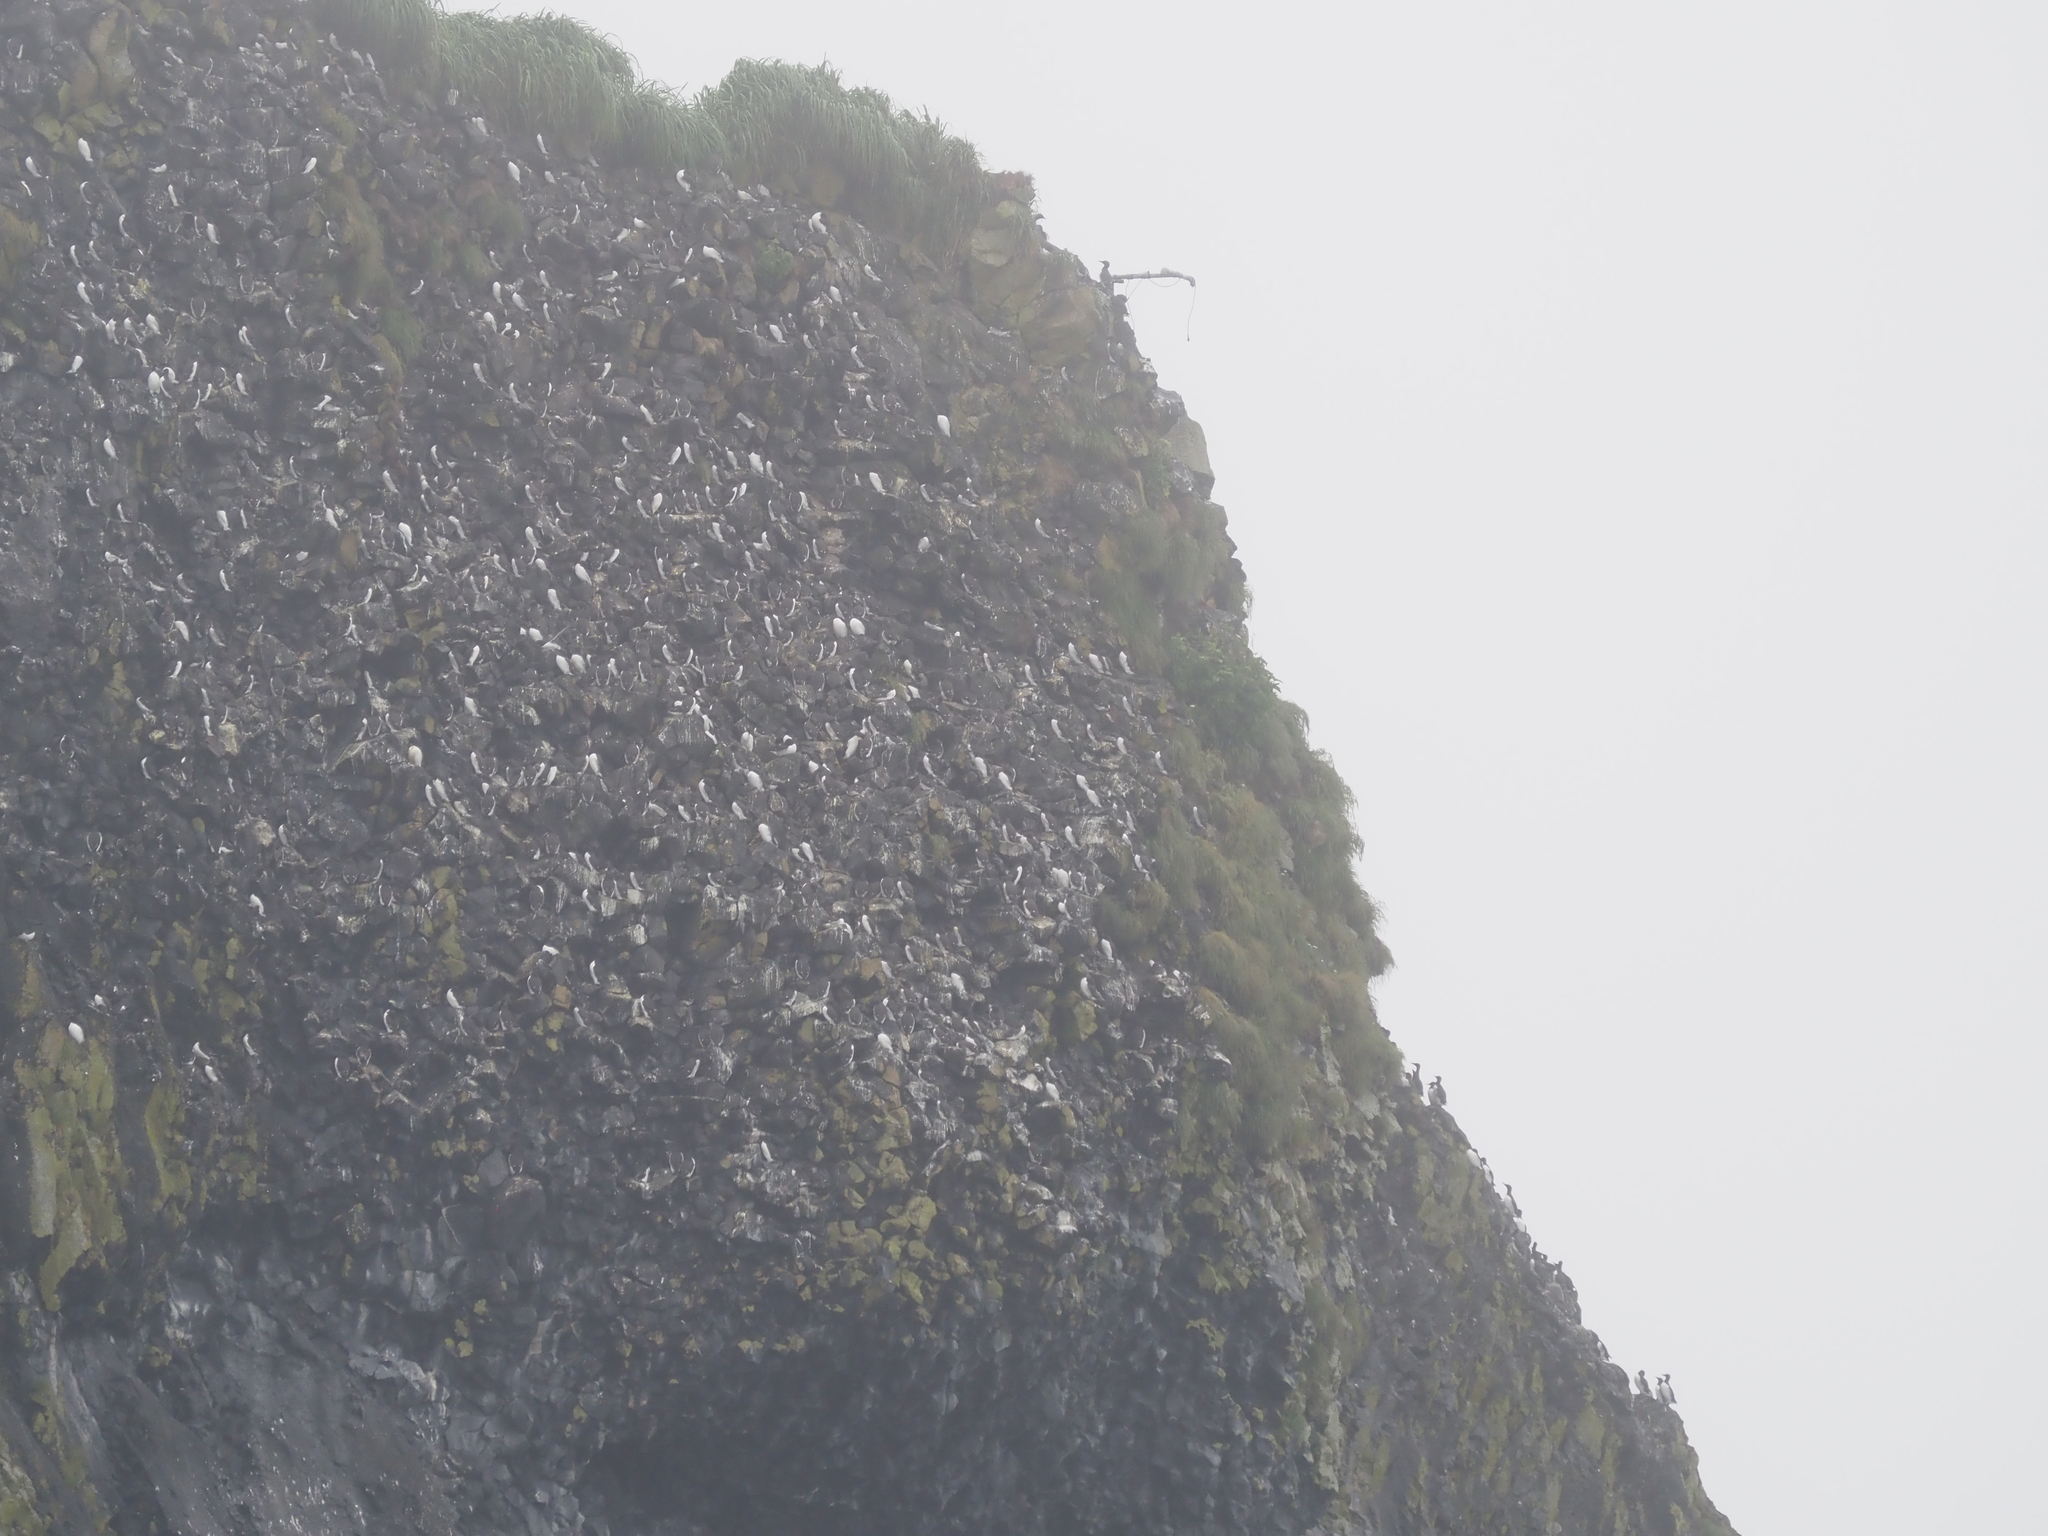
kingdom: Animalia
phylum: Chordata
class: Aves
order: Charadriiformes
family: Alcidae
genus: Uria
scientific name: Uria aalge
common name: Common murre
